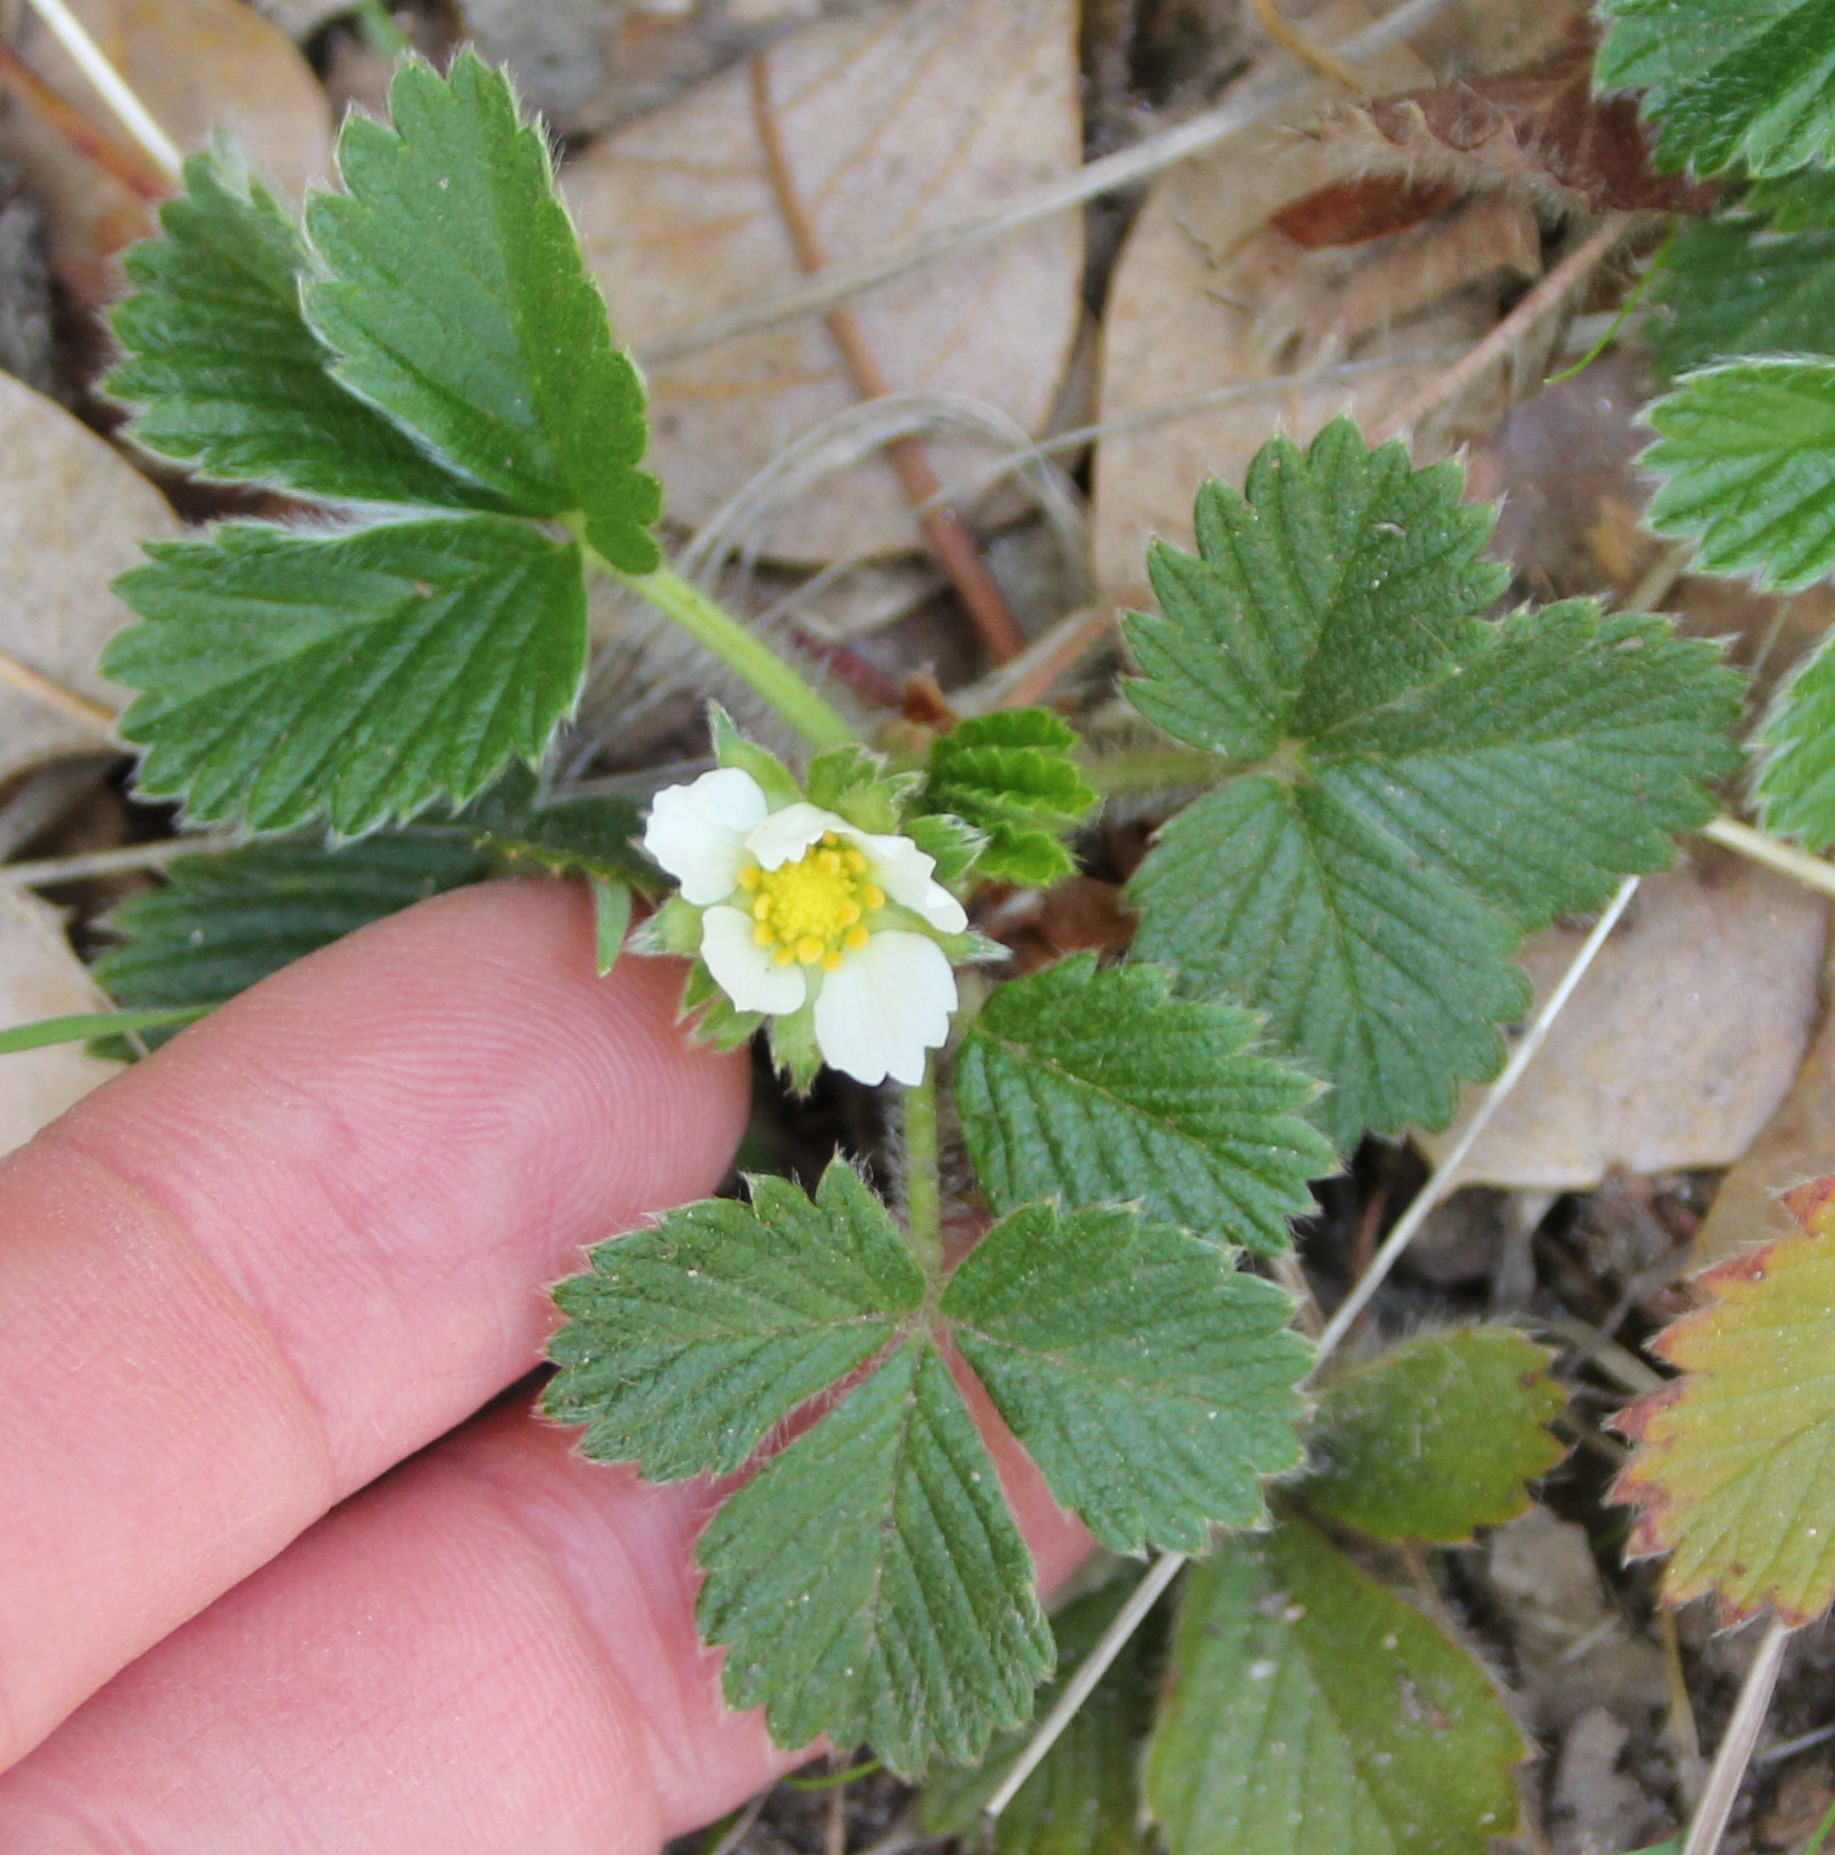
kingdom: Plantae
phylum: Tracheophyta
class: Magnoliopsida
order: Rosales
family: Rosaceae
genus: Fragaria
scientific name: Fragaria vesca
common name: Wild strawberry
